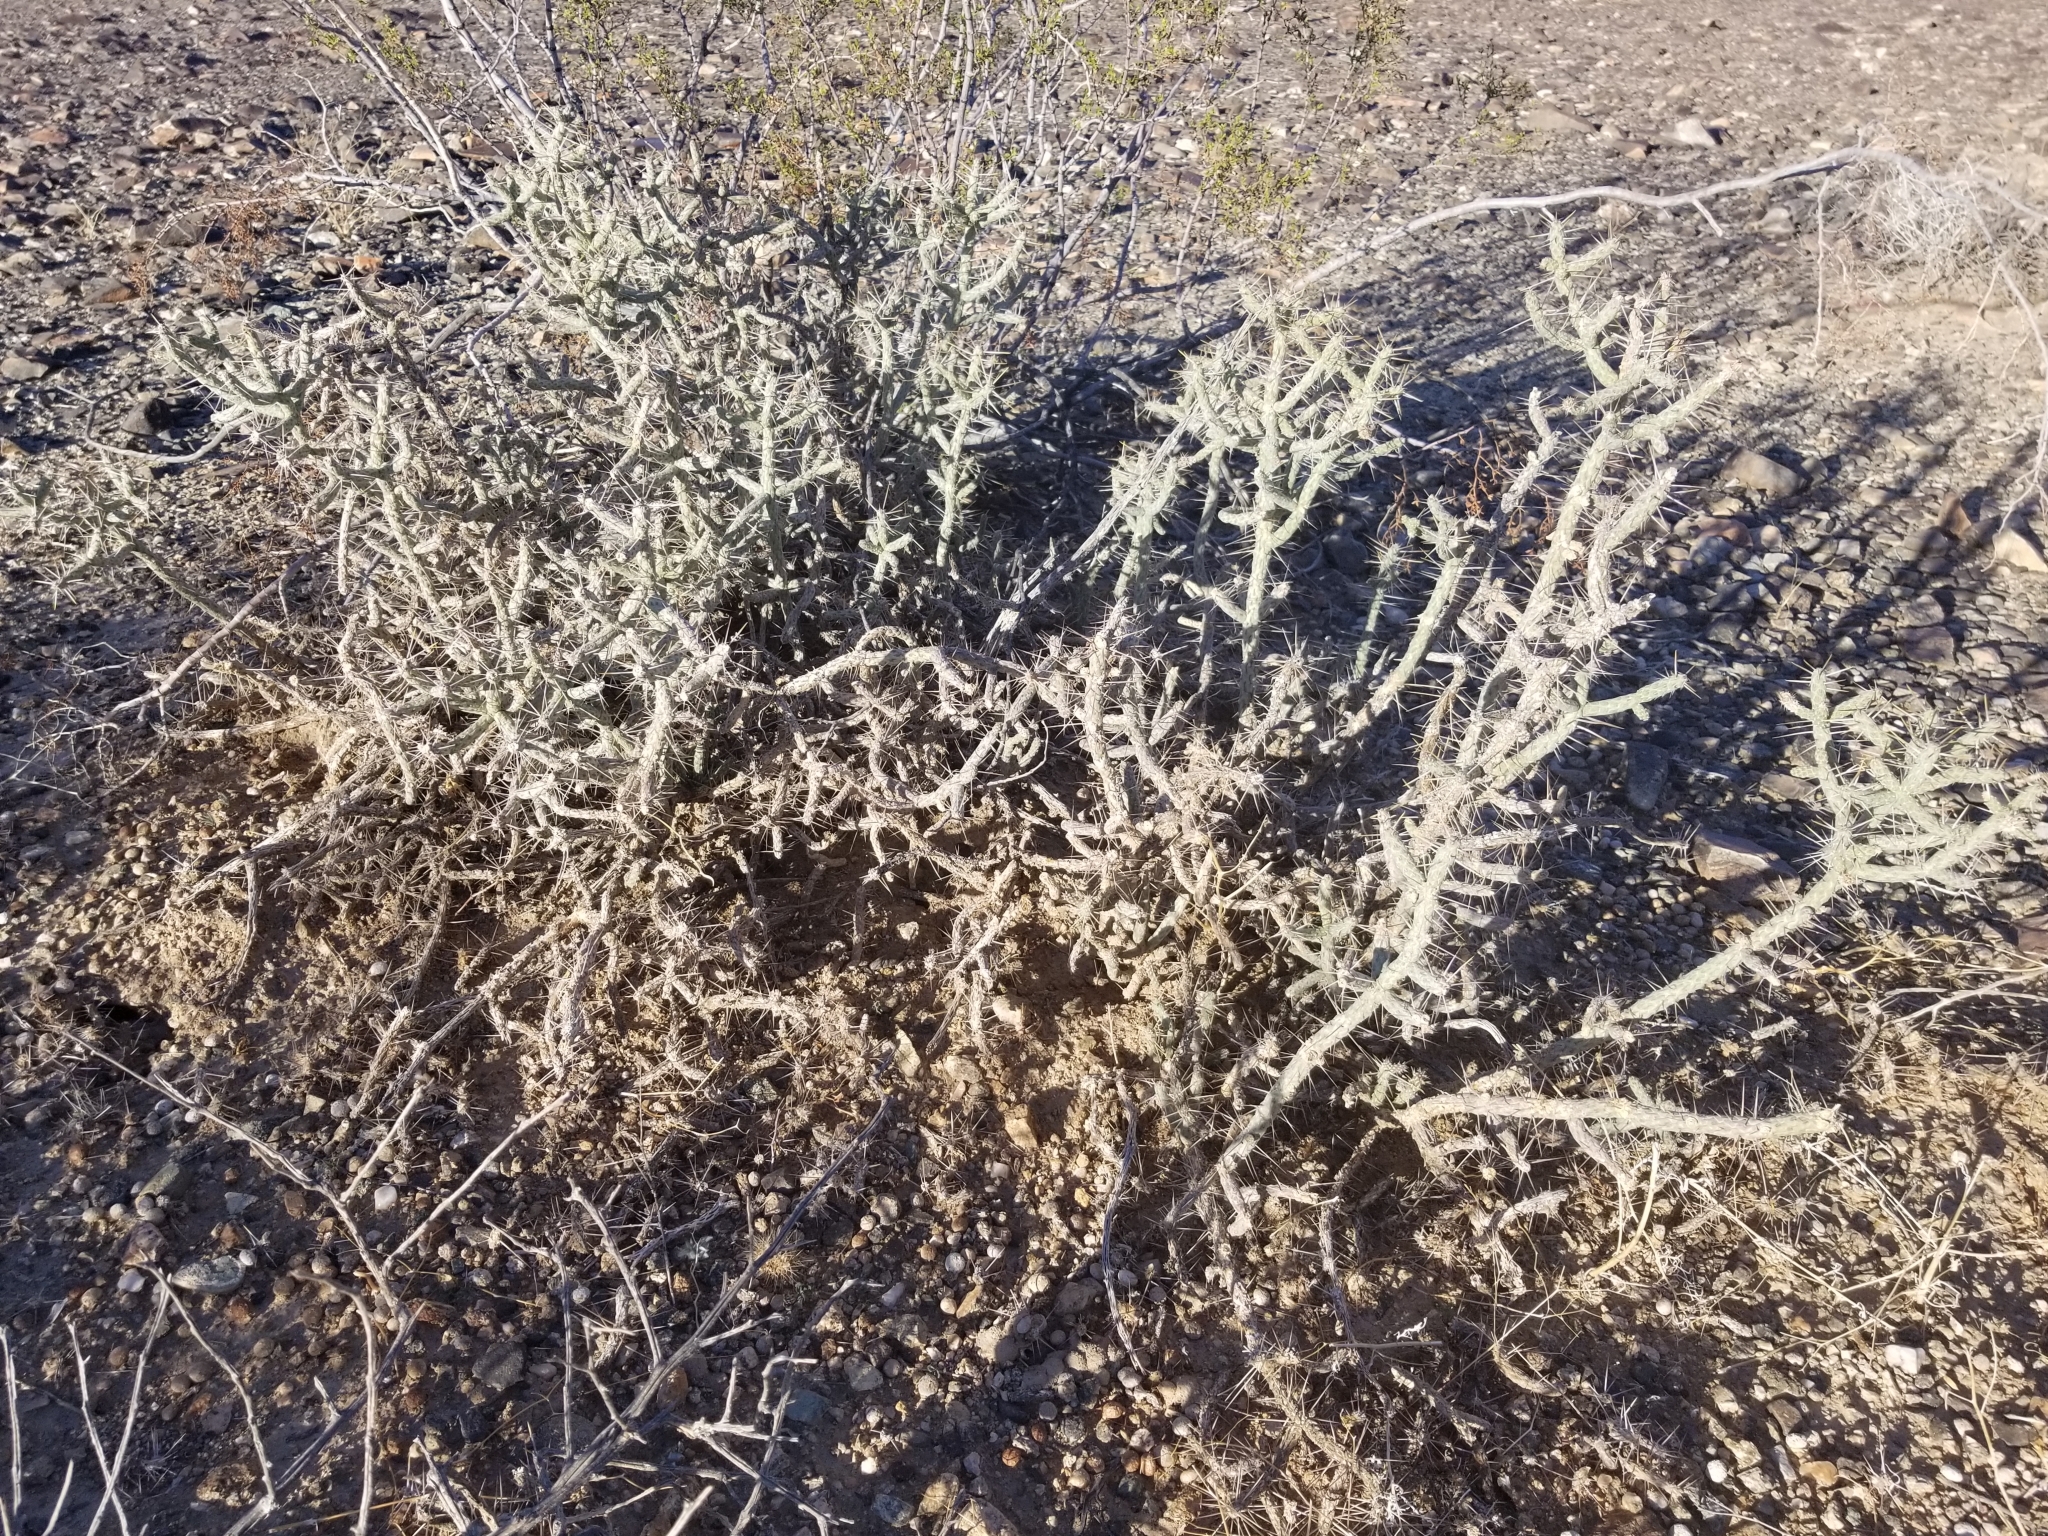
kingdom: Plantae
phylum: Tracheophyta
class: Magnoliopsida
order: Caryophyllales
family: Cactaceae
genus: Cylindropuntia
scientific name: Cylindropuntia ramosissima
